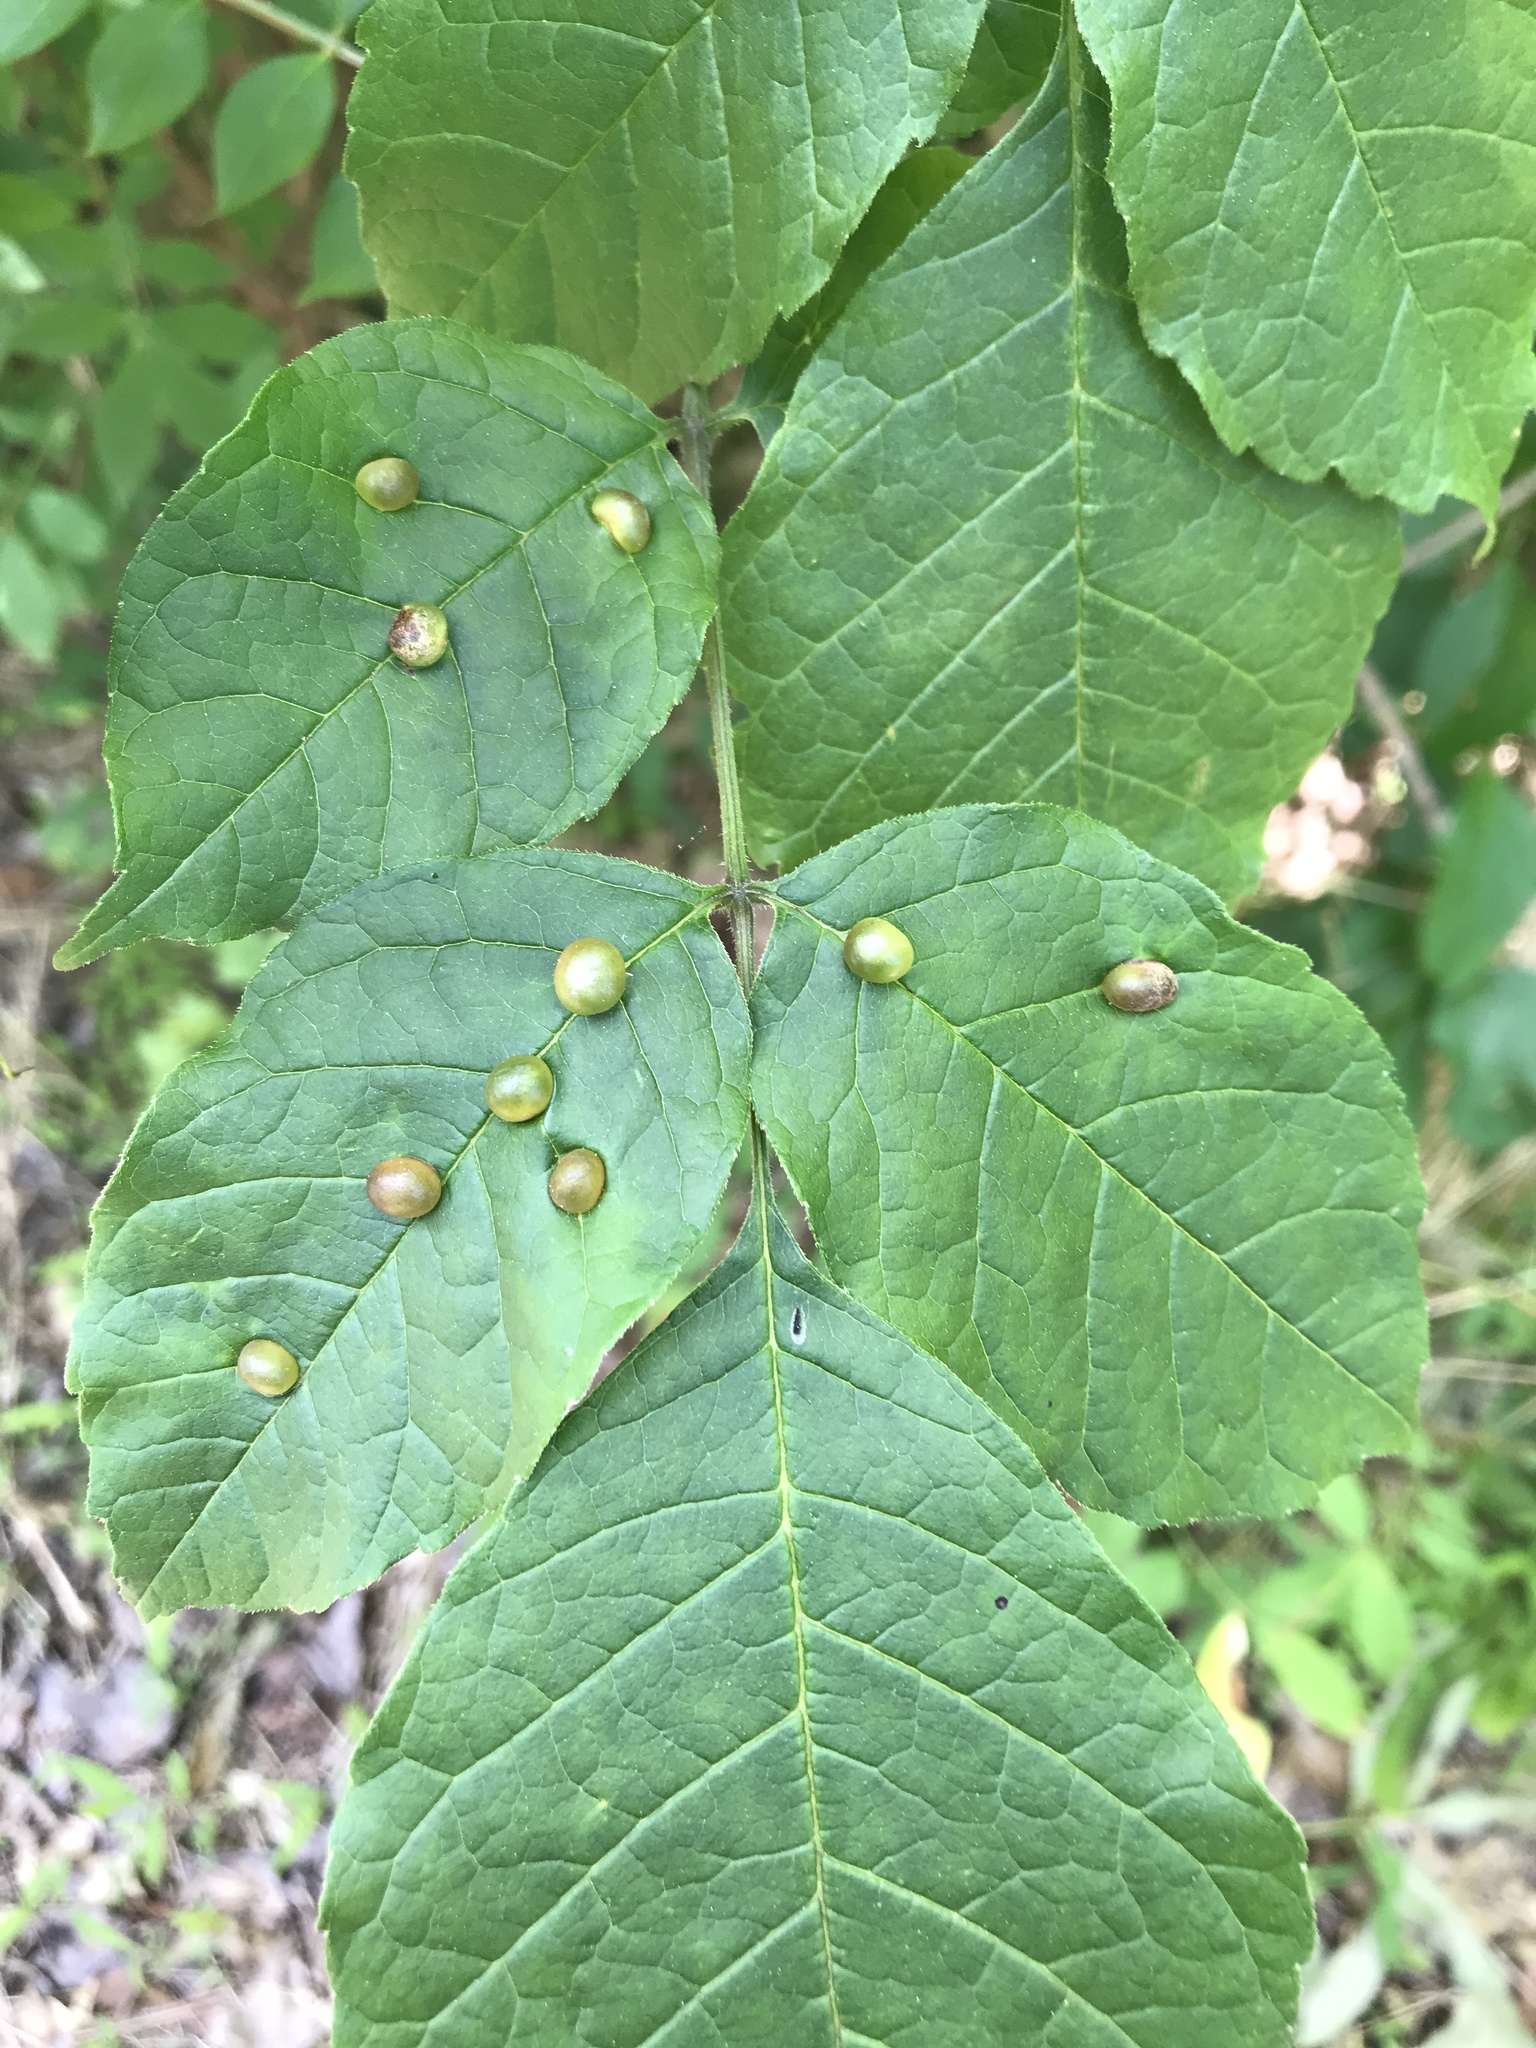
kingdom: Animalia
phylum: Arthropoda
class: Insecta
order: Diptera
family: Cecidomyiidae
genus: Dasineura
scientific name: Dasineura pellex
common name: Ash bullet gall midge
